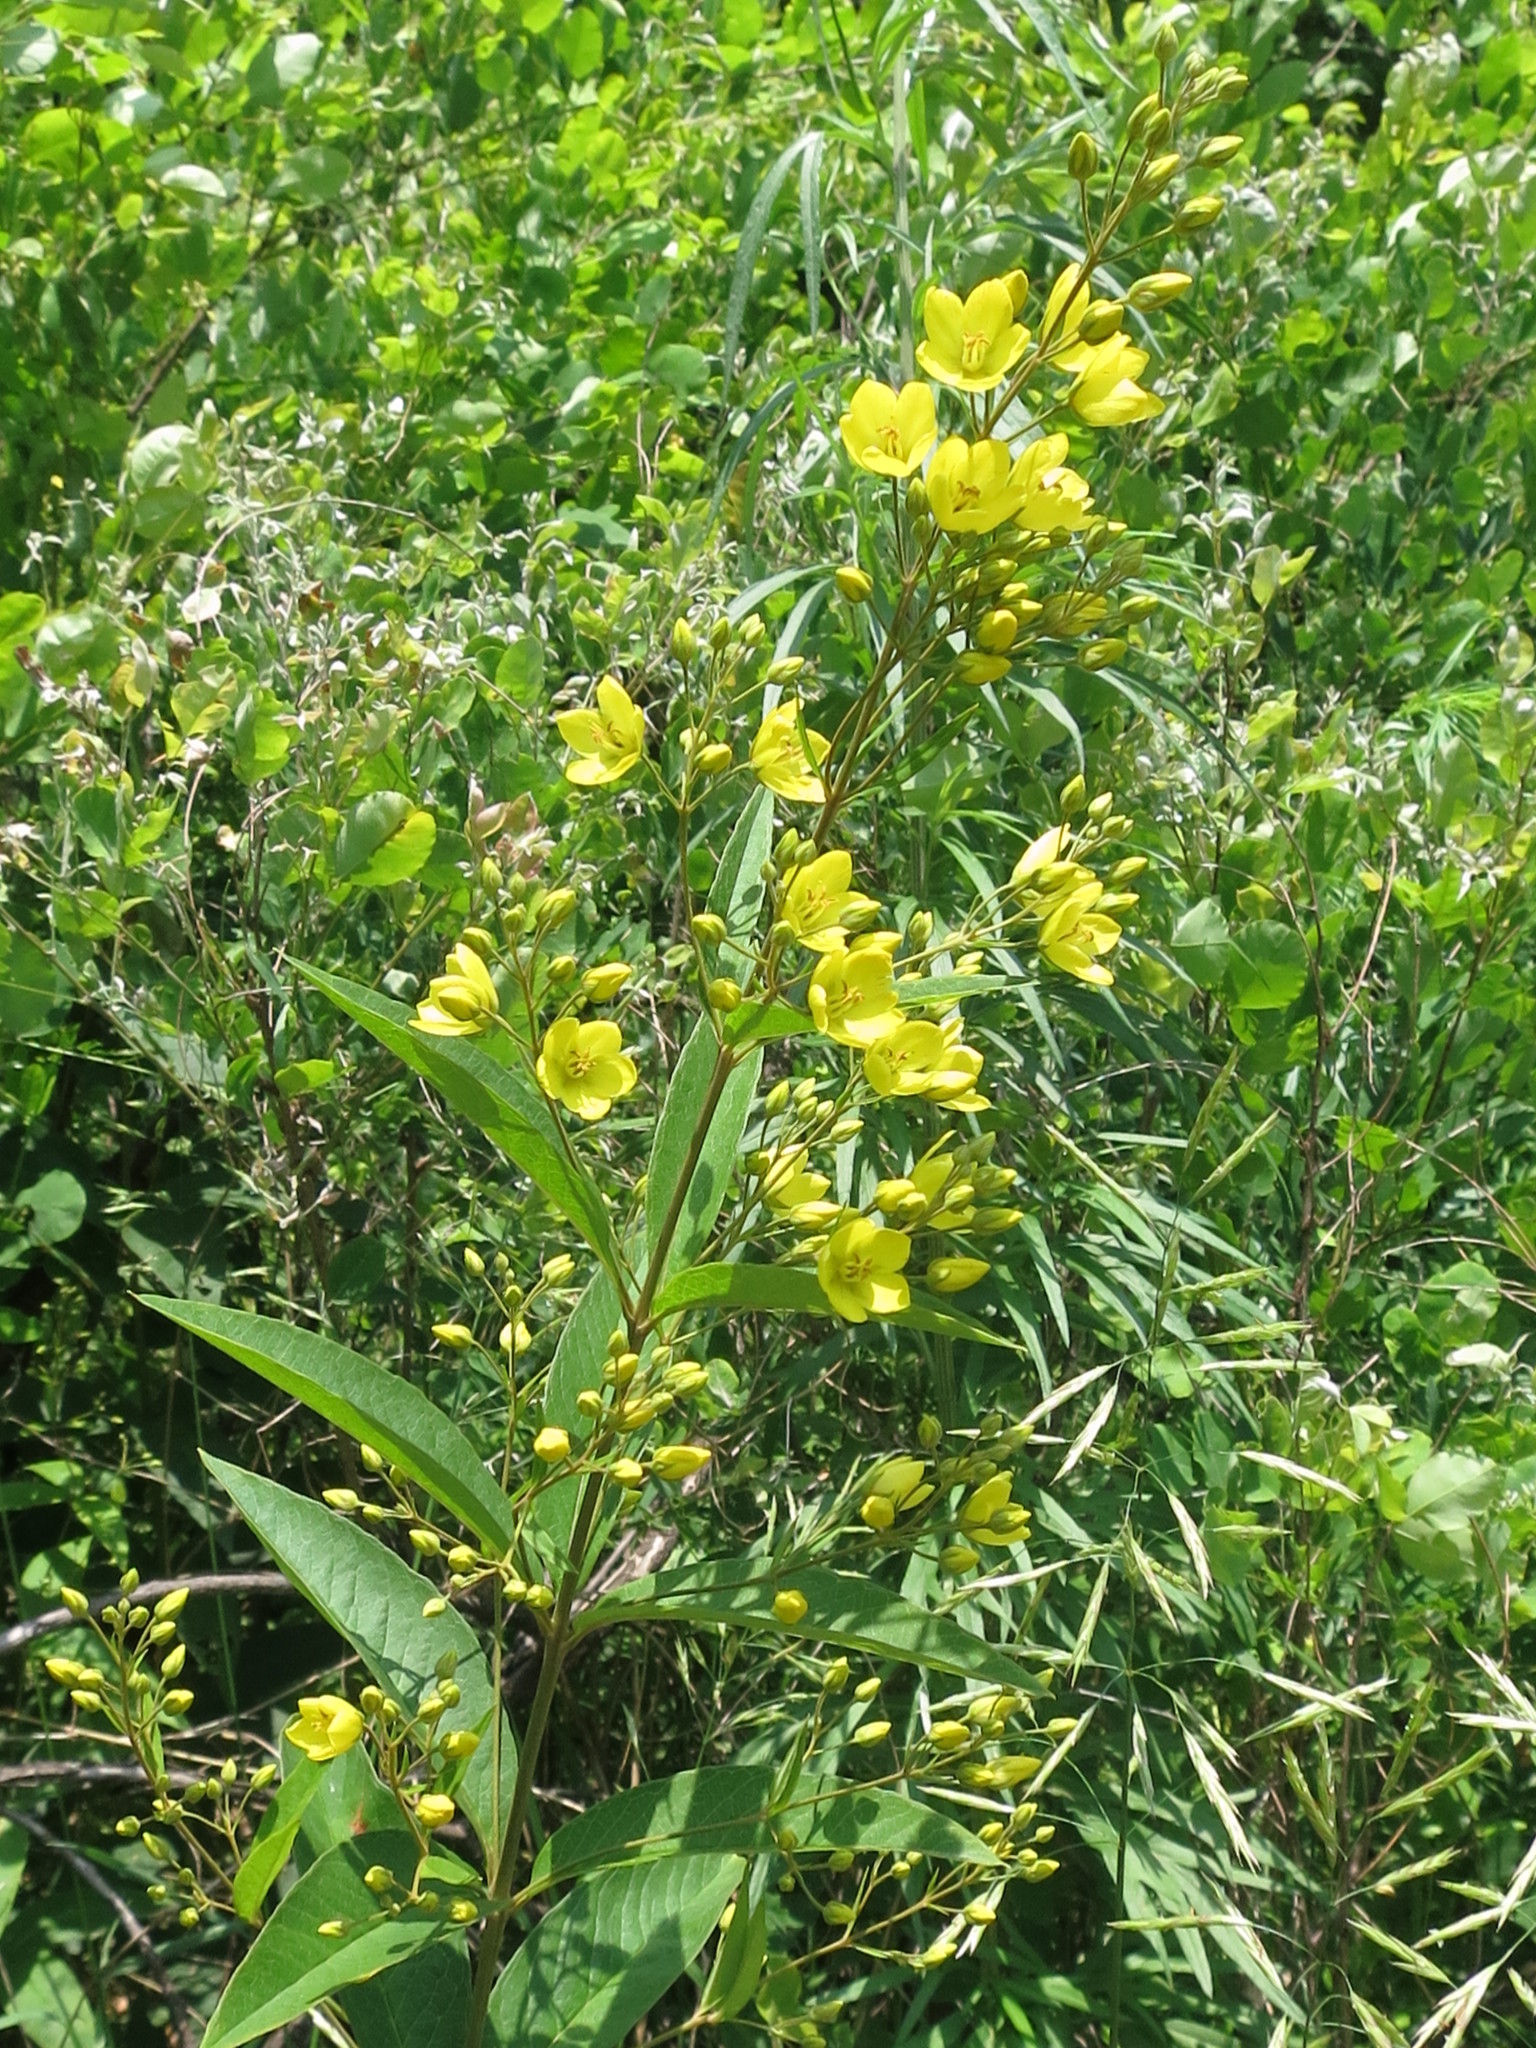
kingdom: Plantae
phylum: Tracheophyta
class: Magnoliopsida
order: Ericales
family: Primulaceae
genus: Lysimachia
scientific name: Lysimachia davurica
